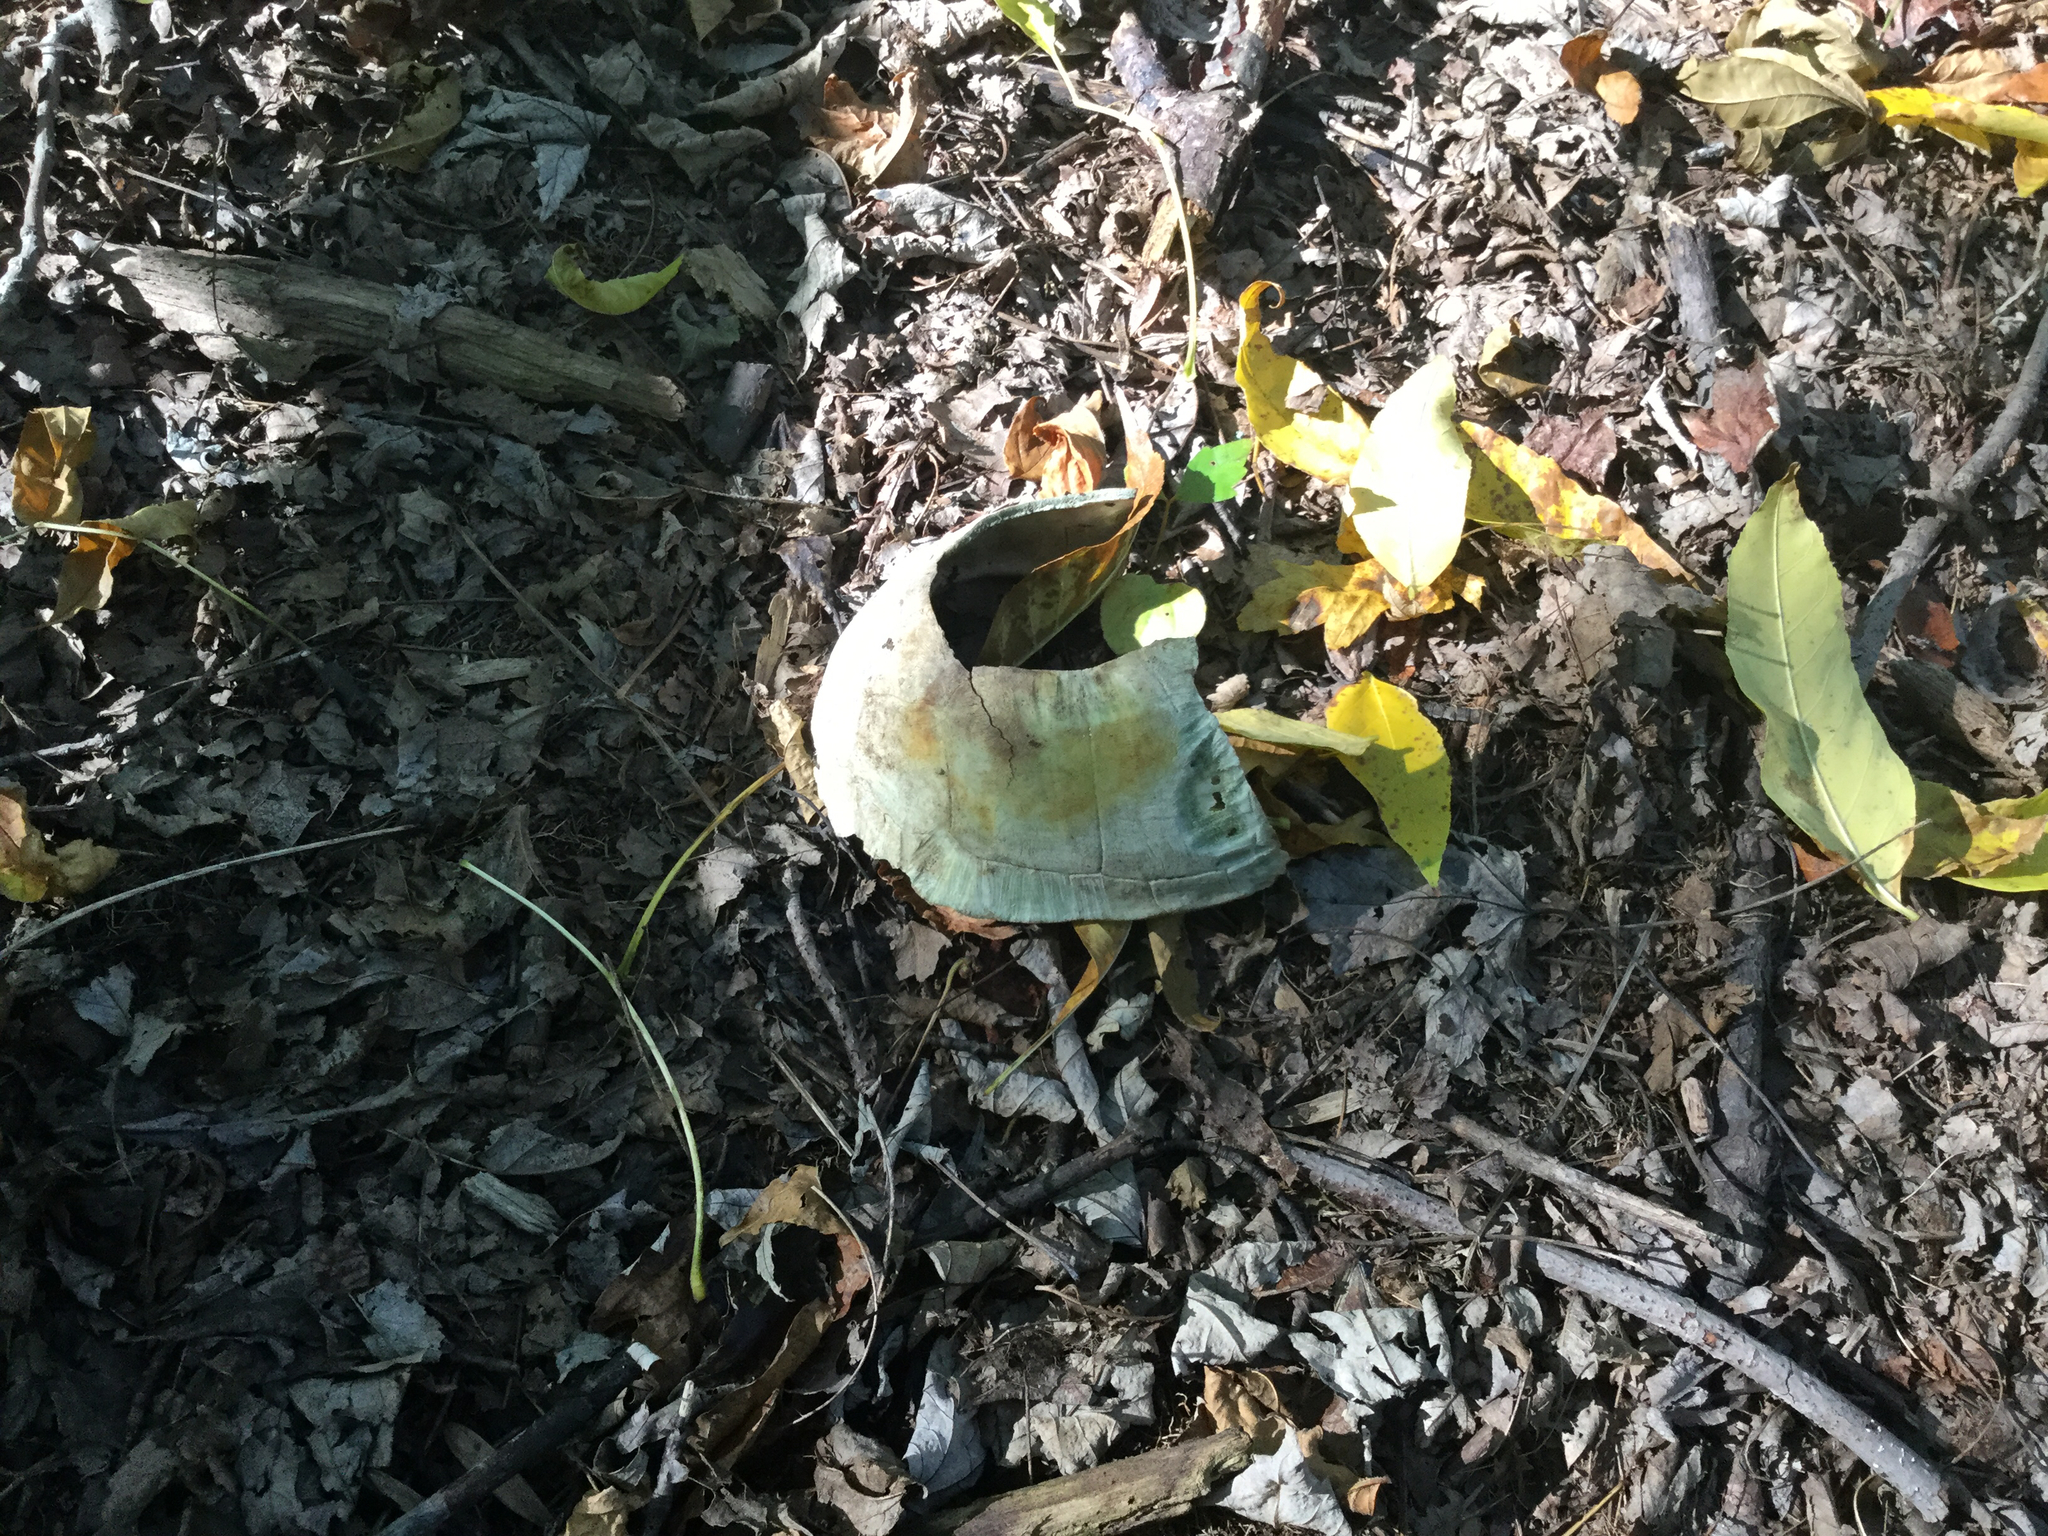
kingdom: Animalia
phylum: Chordata
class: Testudines
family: Emydidae
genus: Terrapene
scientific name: Terrapene carolina
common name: Common box turtle
